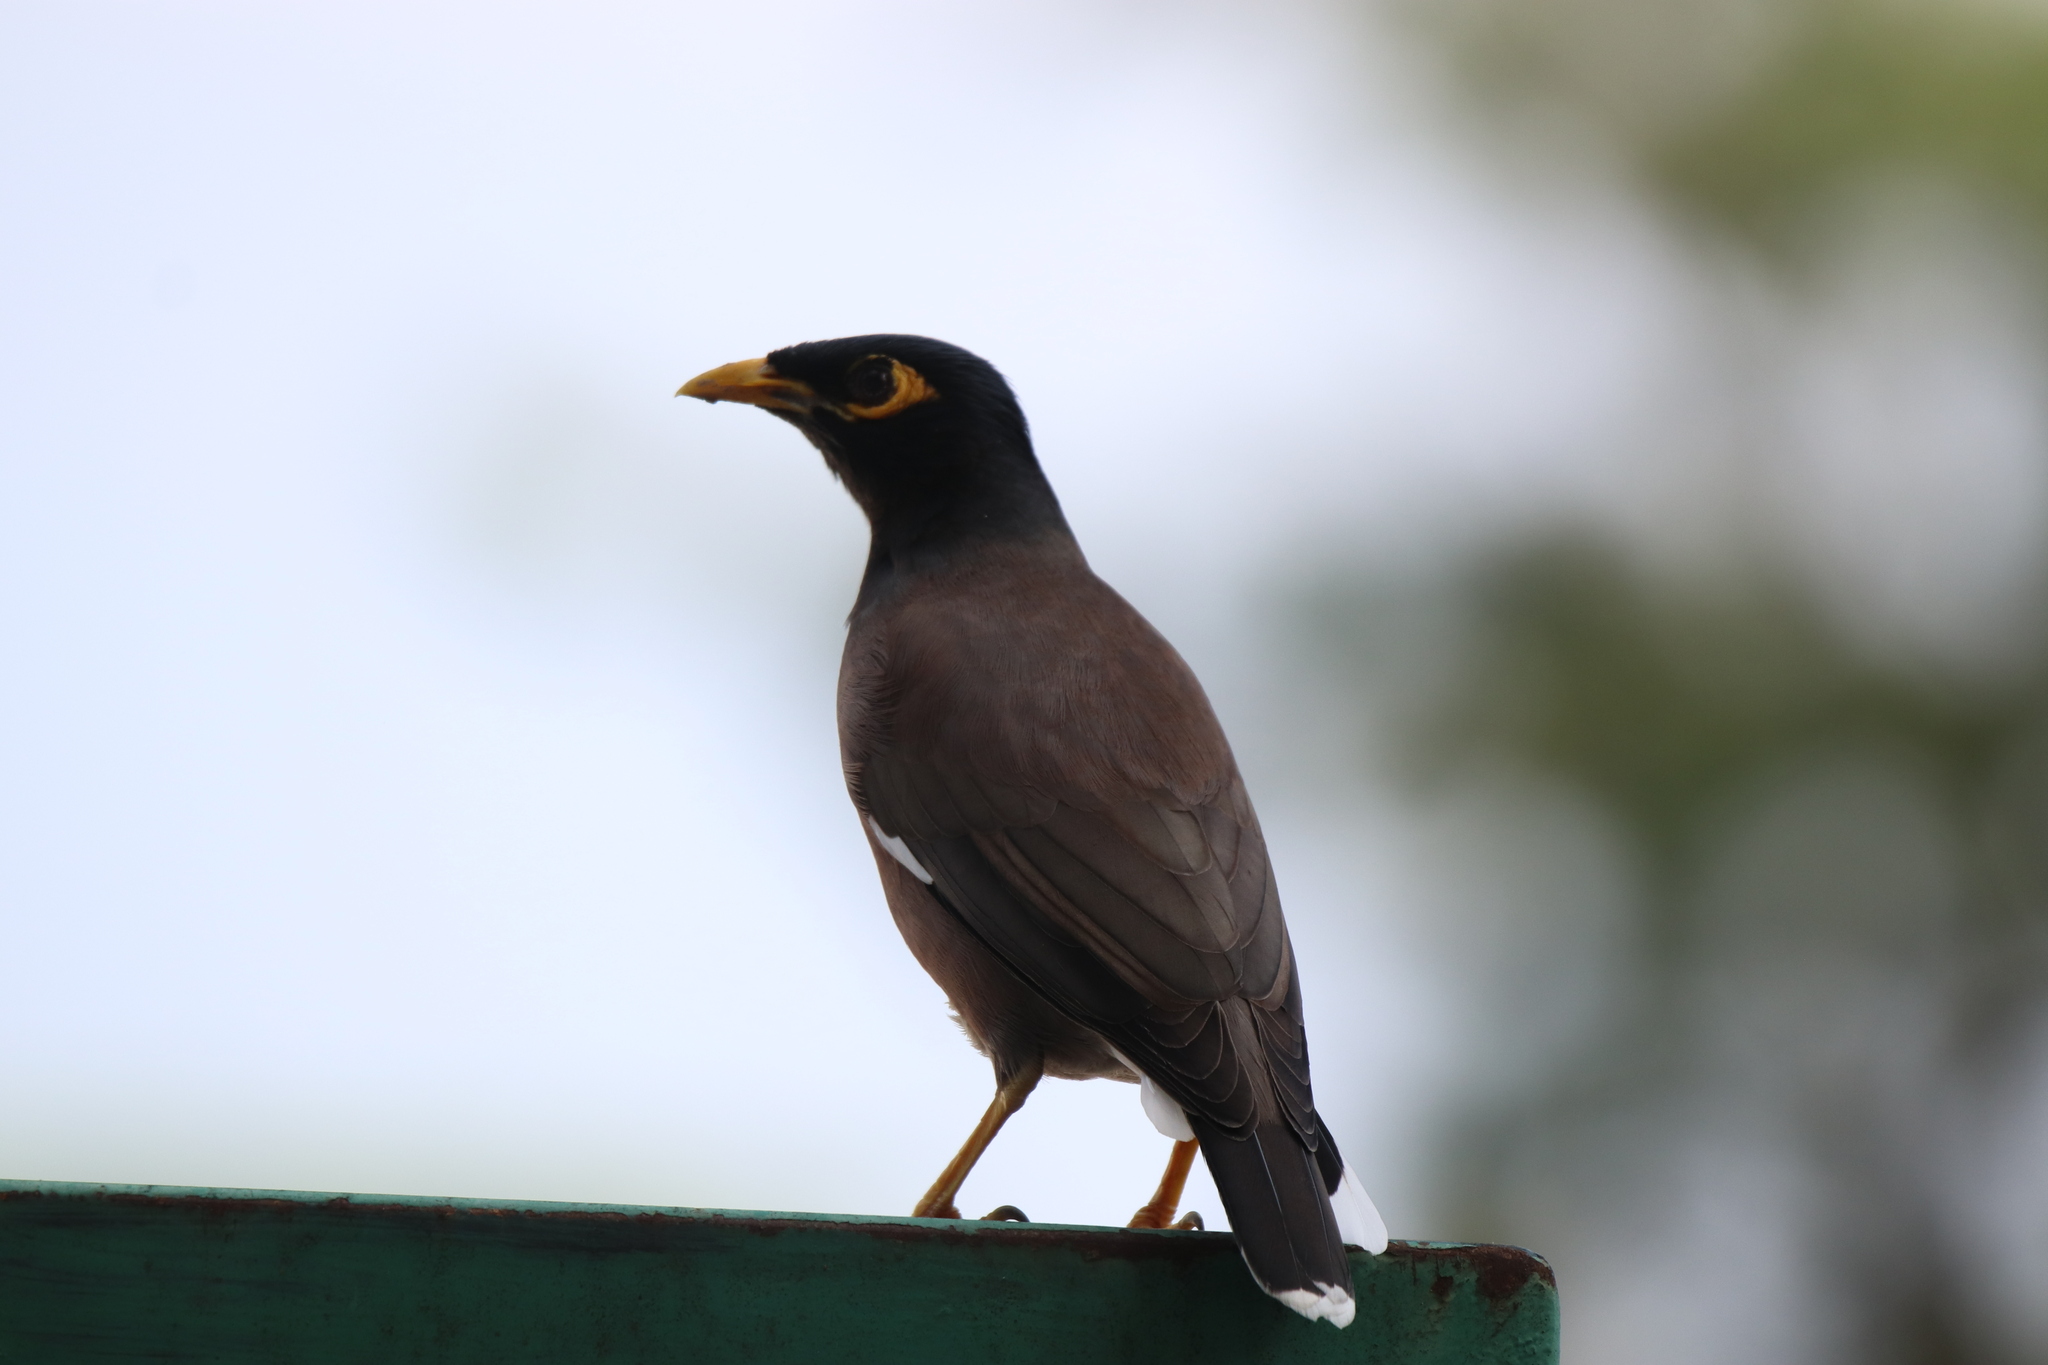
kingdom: Animalia
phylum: Chordata
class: Aves
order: Passeriformes
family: Sturnidae
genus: Acridotheres
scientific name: Acridotheres tristis
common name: Common myna
